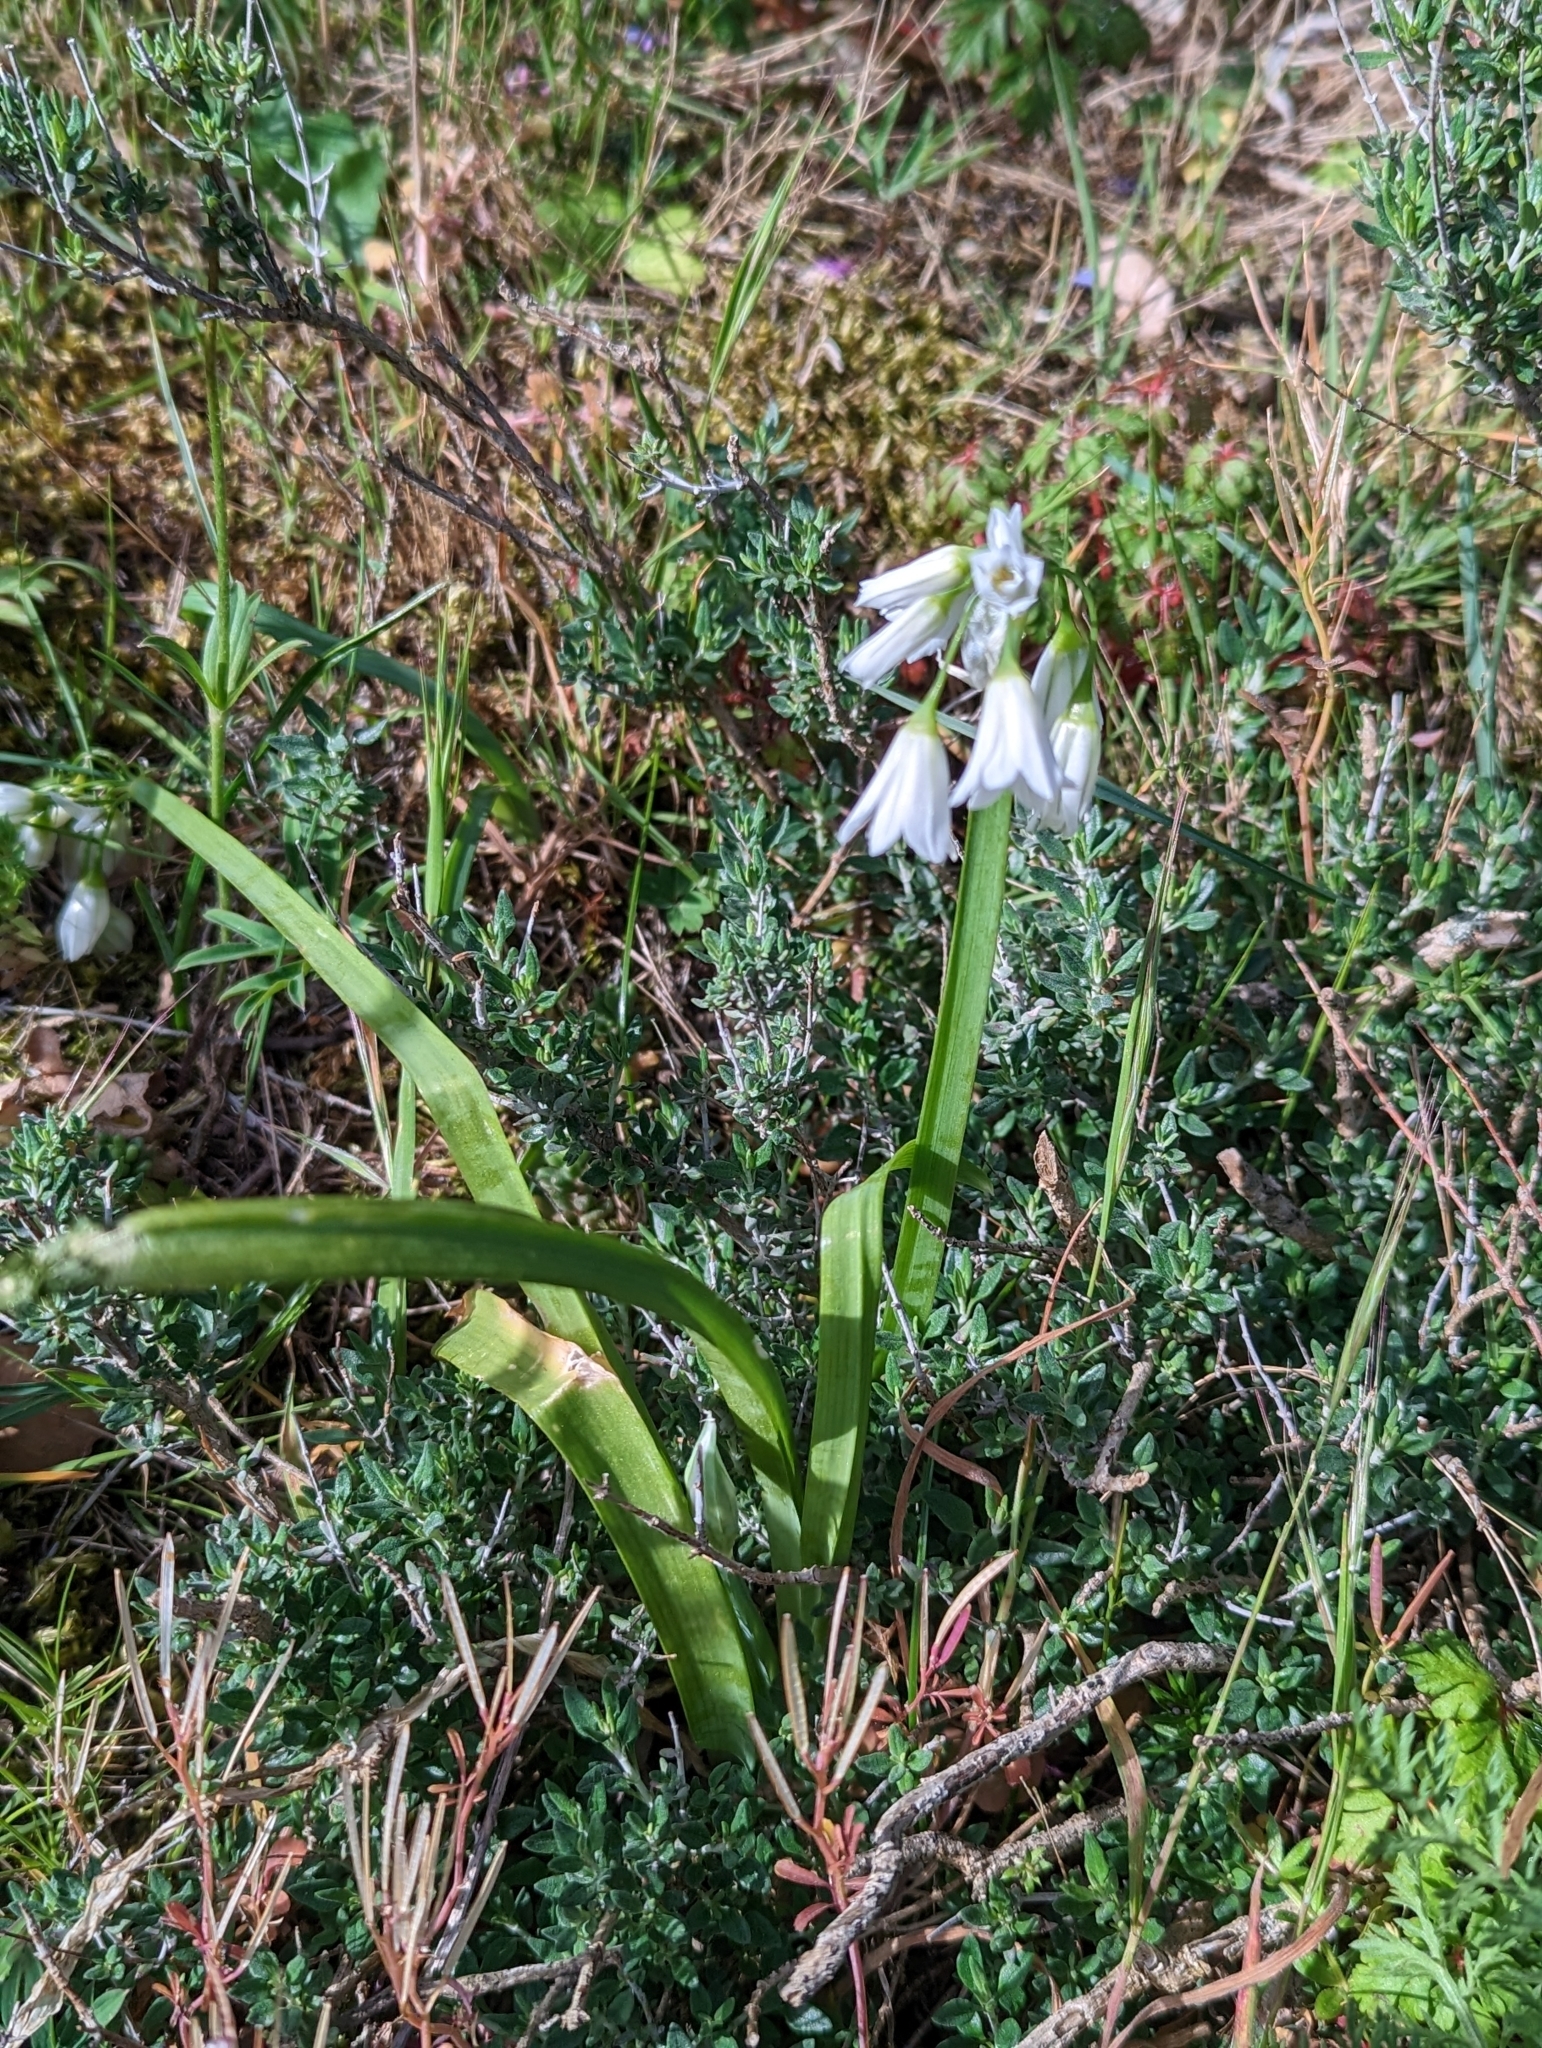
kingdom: Plantae
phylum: Tracheophyta
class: Liliopsida
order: Asparagales
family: Amaryllidaceae
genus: Allium
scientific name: Allium triquetrum
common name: Three-cornered garlic
